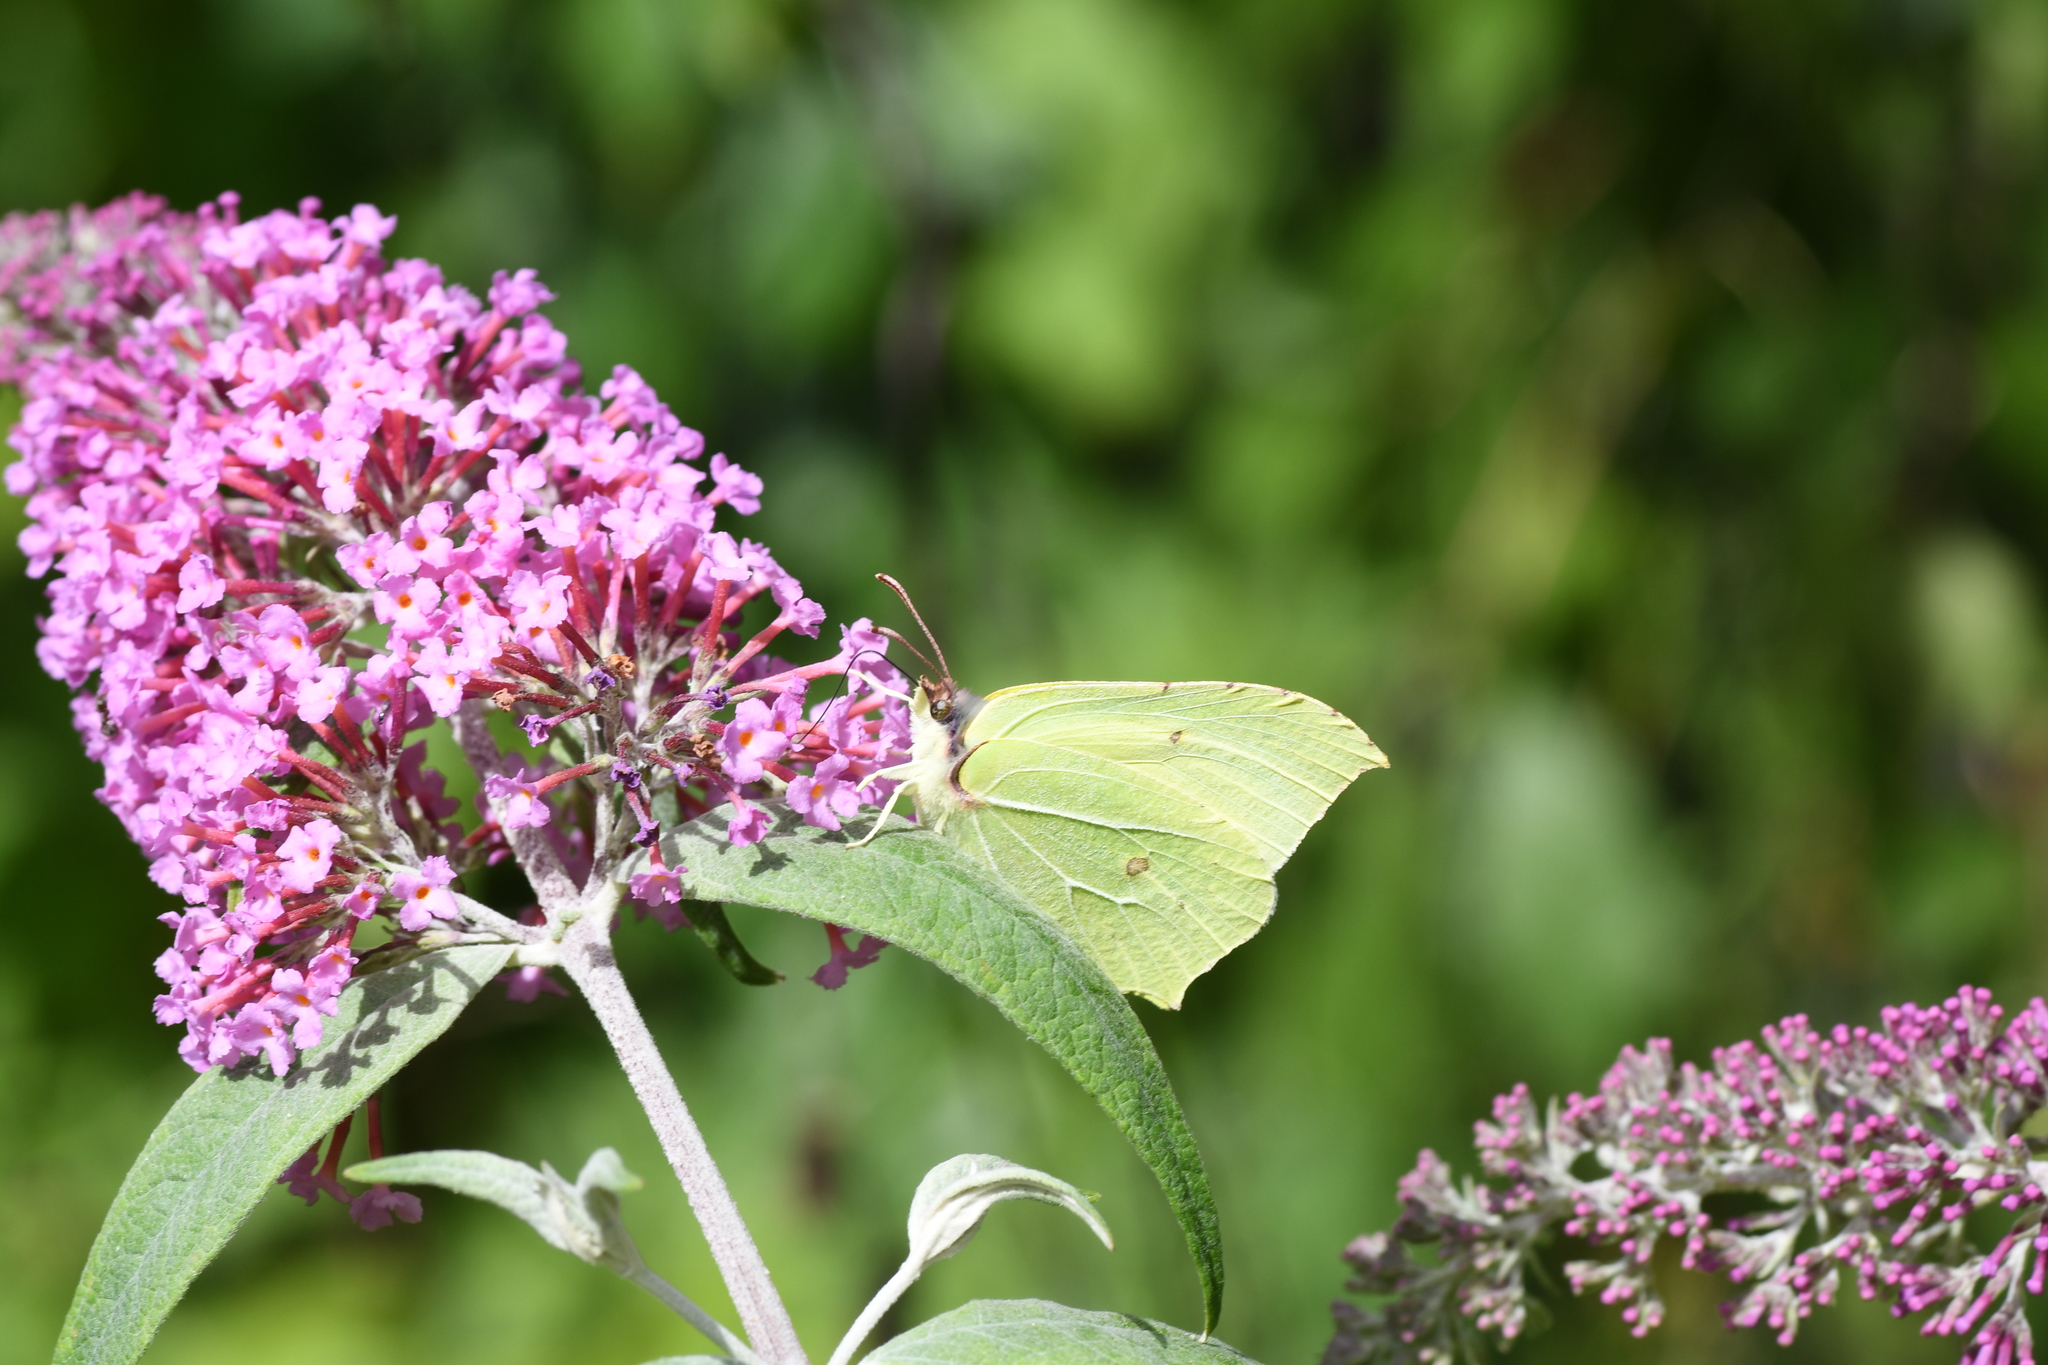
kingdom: Animalia
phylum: Arthropoda
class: Insecta
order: Lepidoptera
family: Pieridae
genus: Gonepteryx
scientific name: Gonepteryx rhamni
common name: Brimstone
